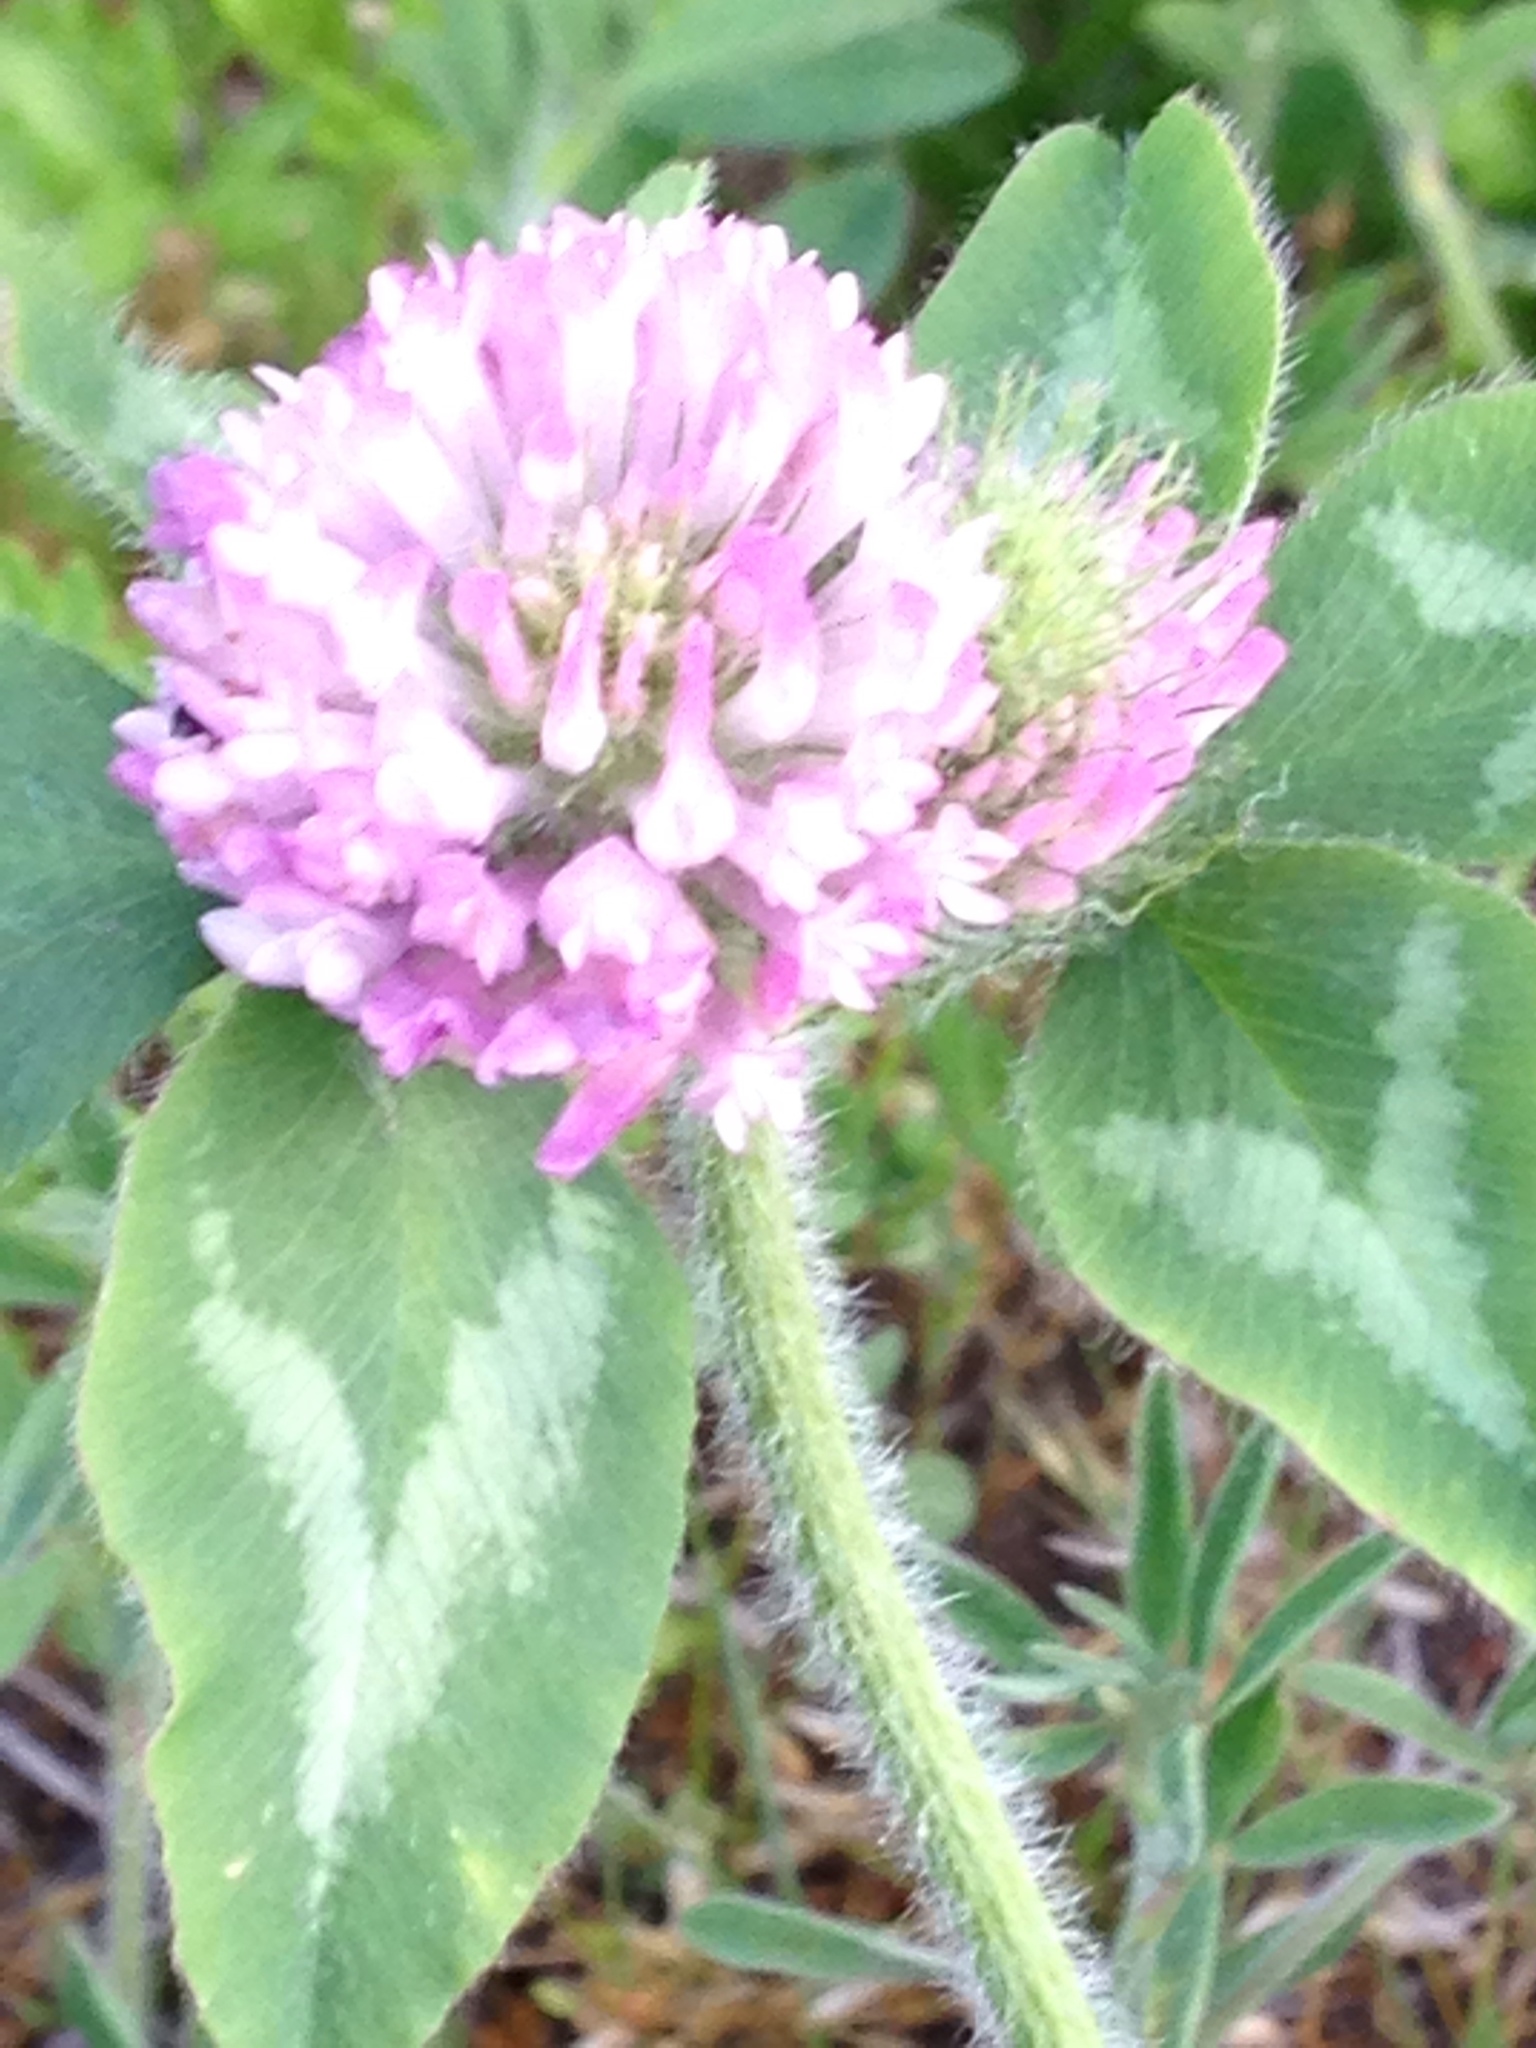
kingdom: Plantae
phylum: Tracheophyta
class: Magnoliopsida
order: Fabales
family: Fabaceae
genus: Trifolium
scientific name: Trifolium pratense
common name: Red clover
